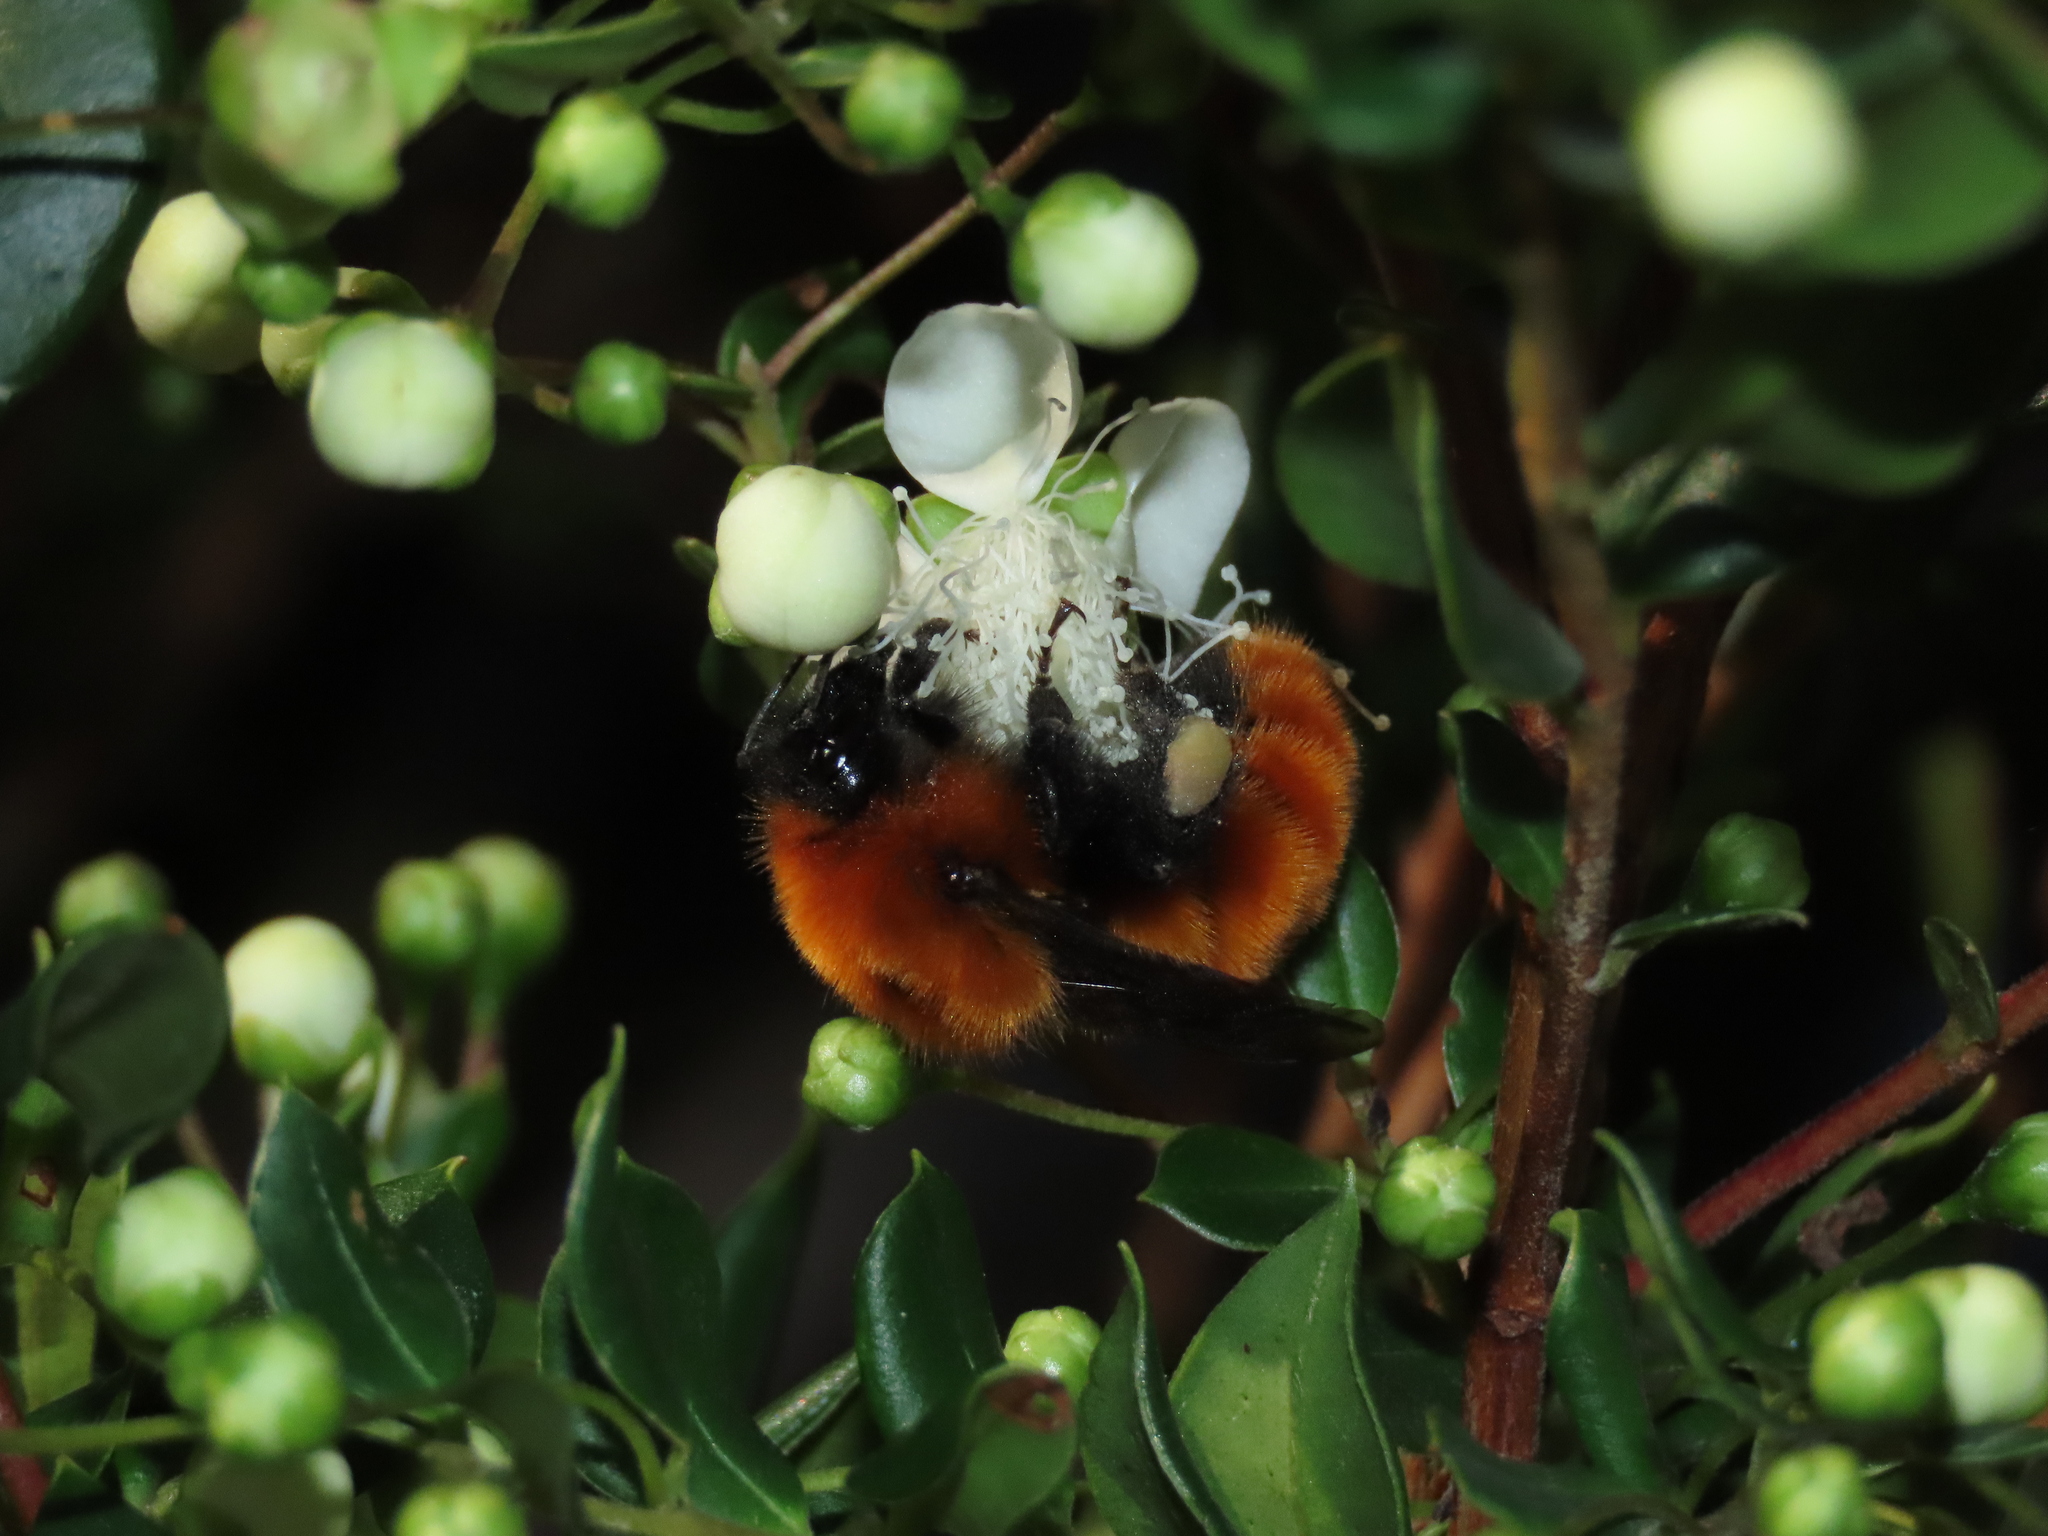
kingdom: Animalia
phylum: Arthropoda
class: Insecta
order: Hymenoptera
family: Apidae
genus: Bombus
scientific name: Bombus dahlbomii
